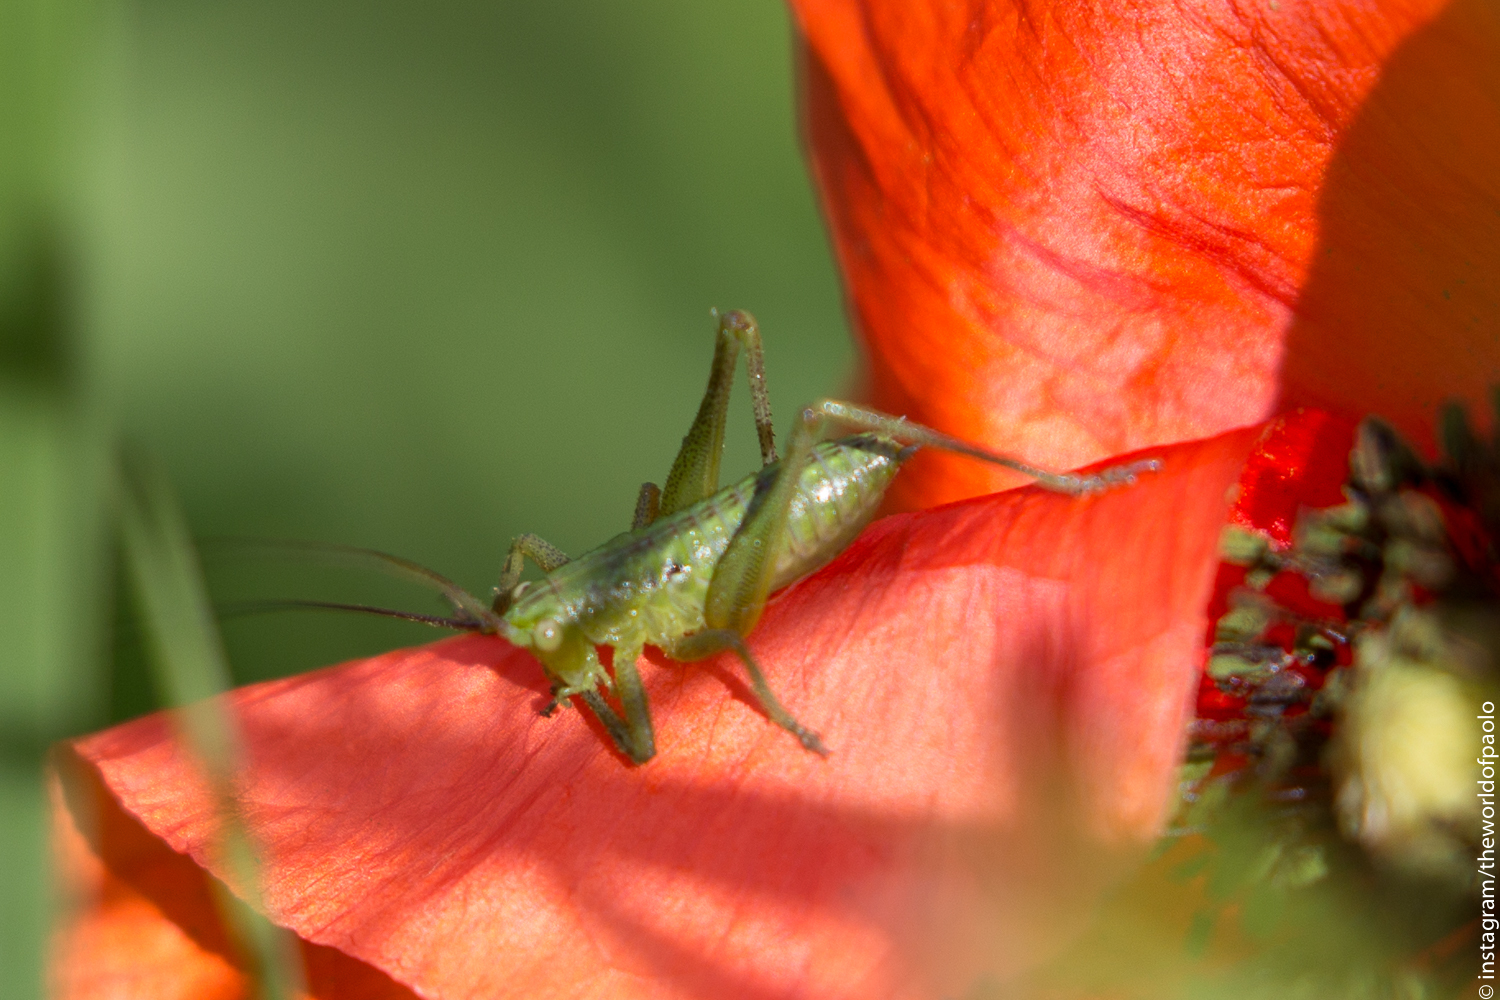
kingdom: Animalia
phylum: Arthropoda
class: Insecta
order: Orthoptera
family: Tettigoniidae
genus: Tettigonia
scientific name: Tettigonia viridissima
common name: Great green bush-cricket
